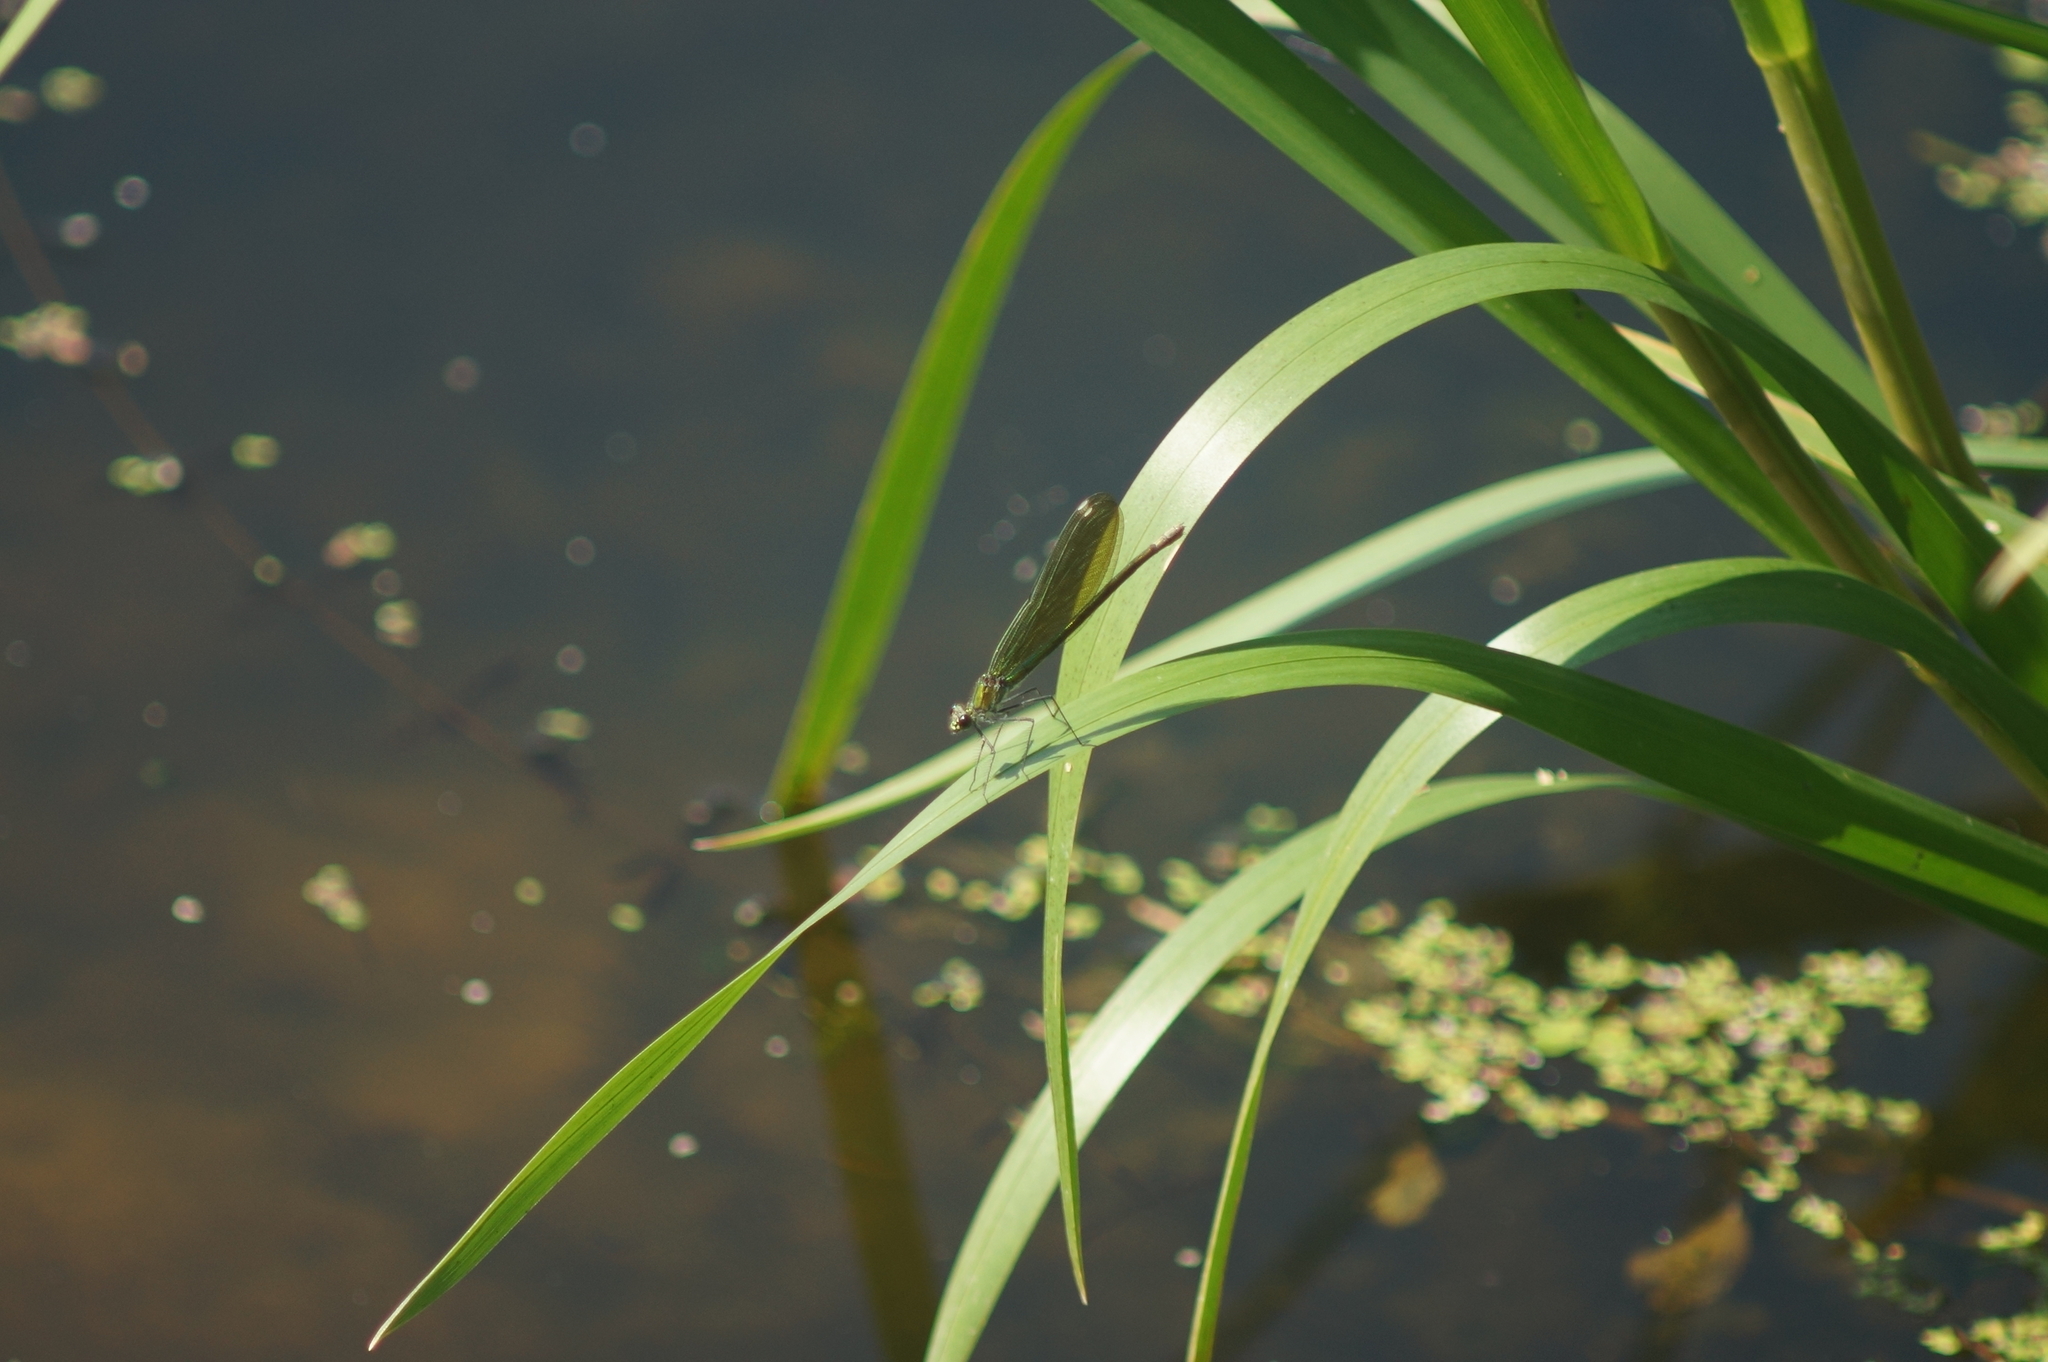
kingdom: Animalia
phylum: Arthropoda
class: Insecta
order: Odonata
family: Calopterygidae
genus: Calopteryx
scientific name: Calopteryx splendens
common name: Banded demoiselle
